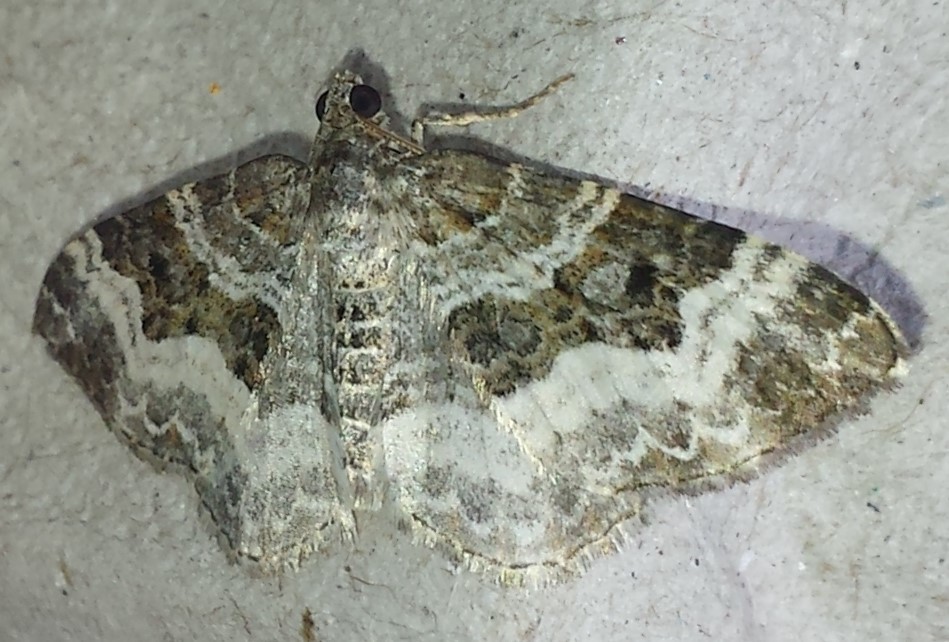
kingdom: Animalia
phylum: Arthropoda
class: Insecta
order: Lepidoptera
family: Geometridae
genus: Epirrhoe
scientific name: Epirrhoe alternata
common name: Common carpet
